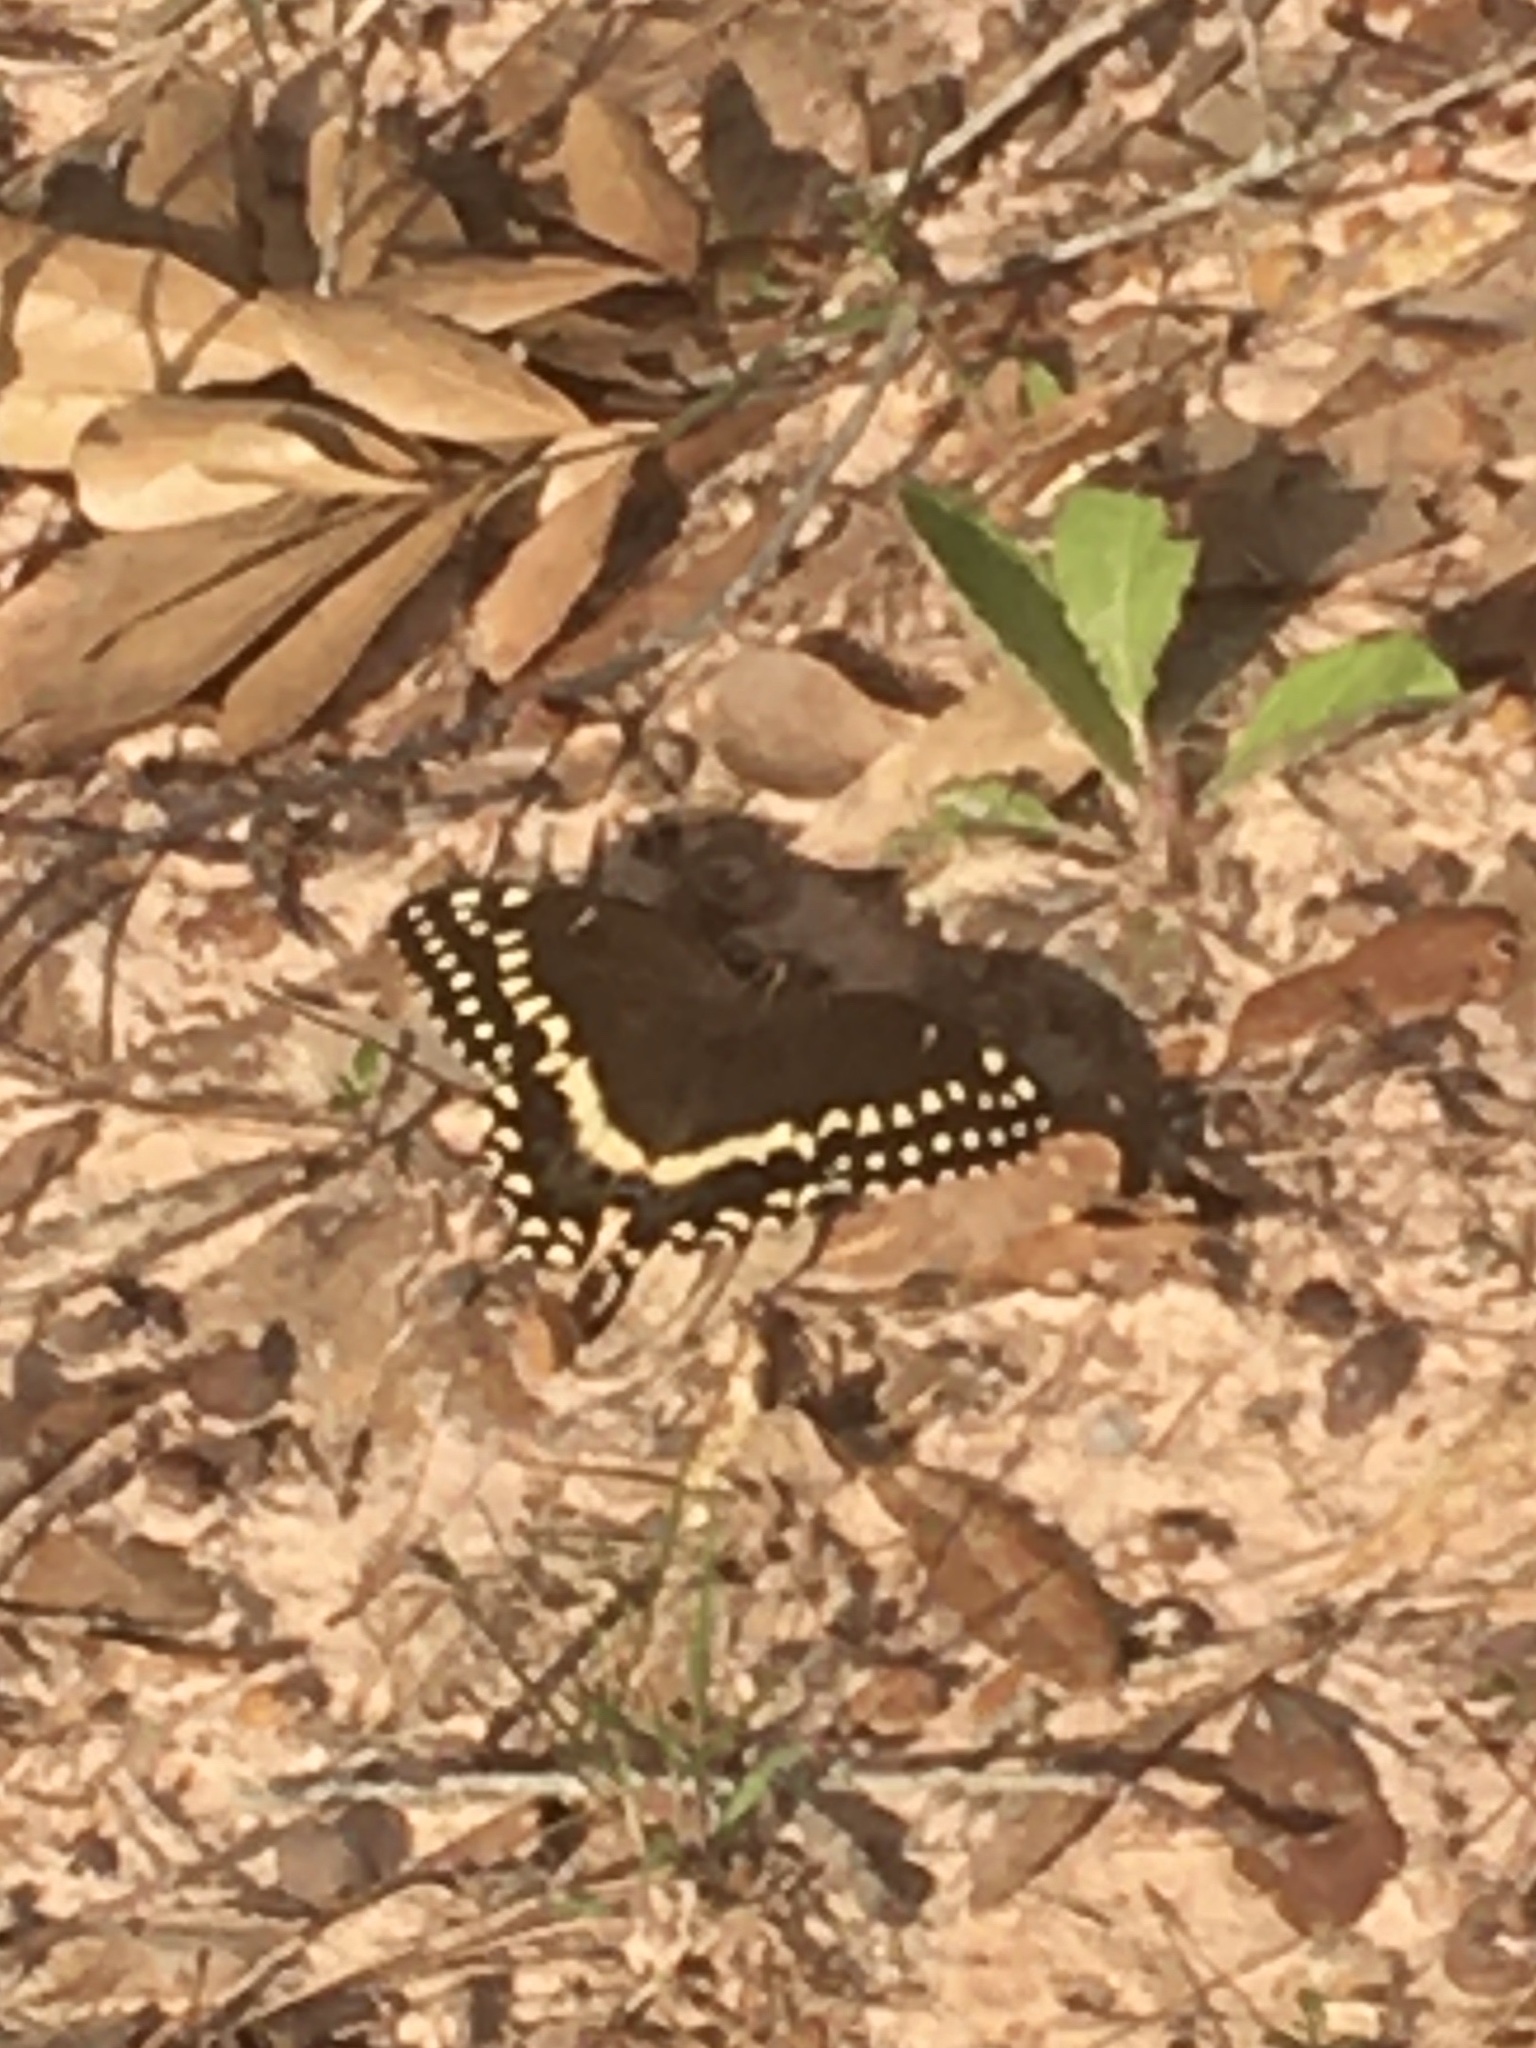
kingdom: Animalia
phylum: Arthropoda
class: Insecta
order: Lepidoptera
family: Papilionidae
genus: Papilio
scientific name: Papilio palamedes
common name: Palamedes swallowtail
